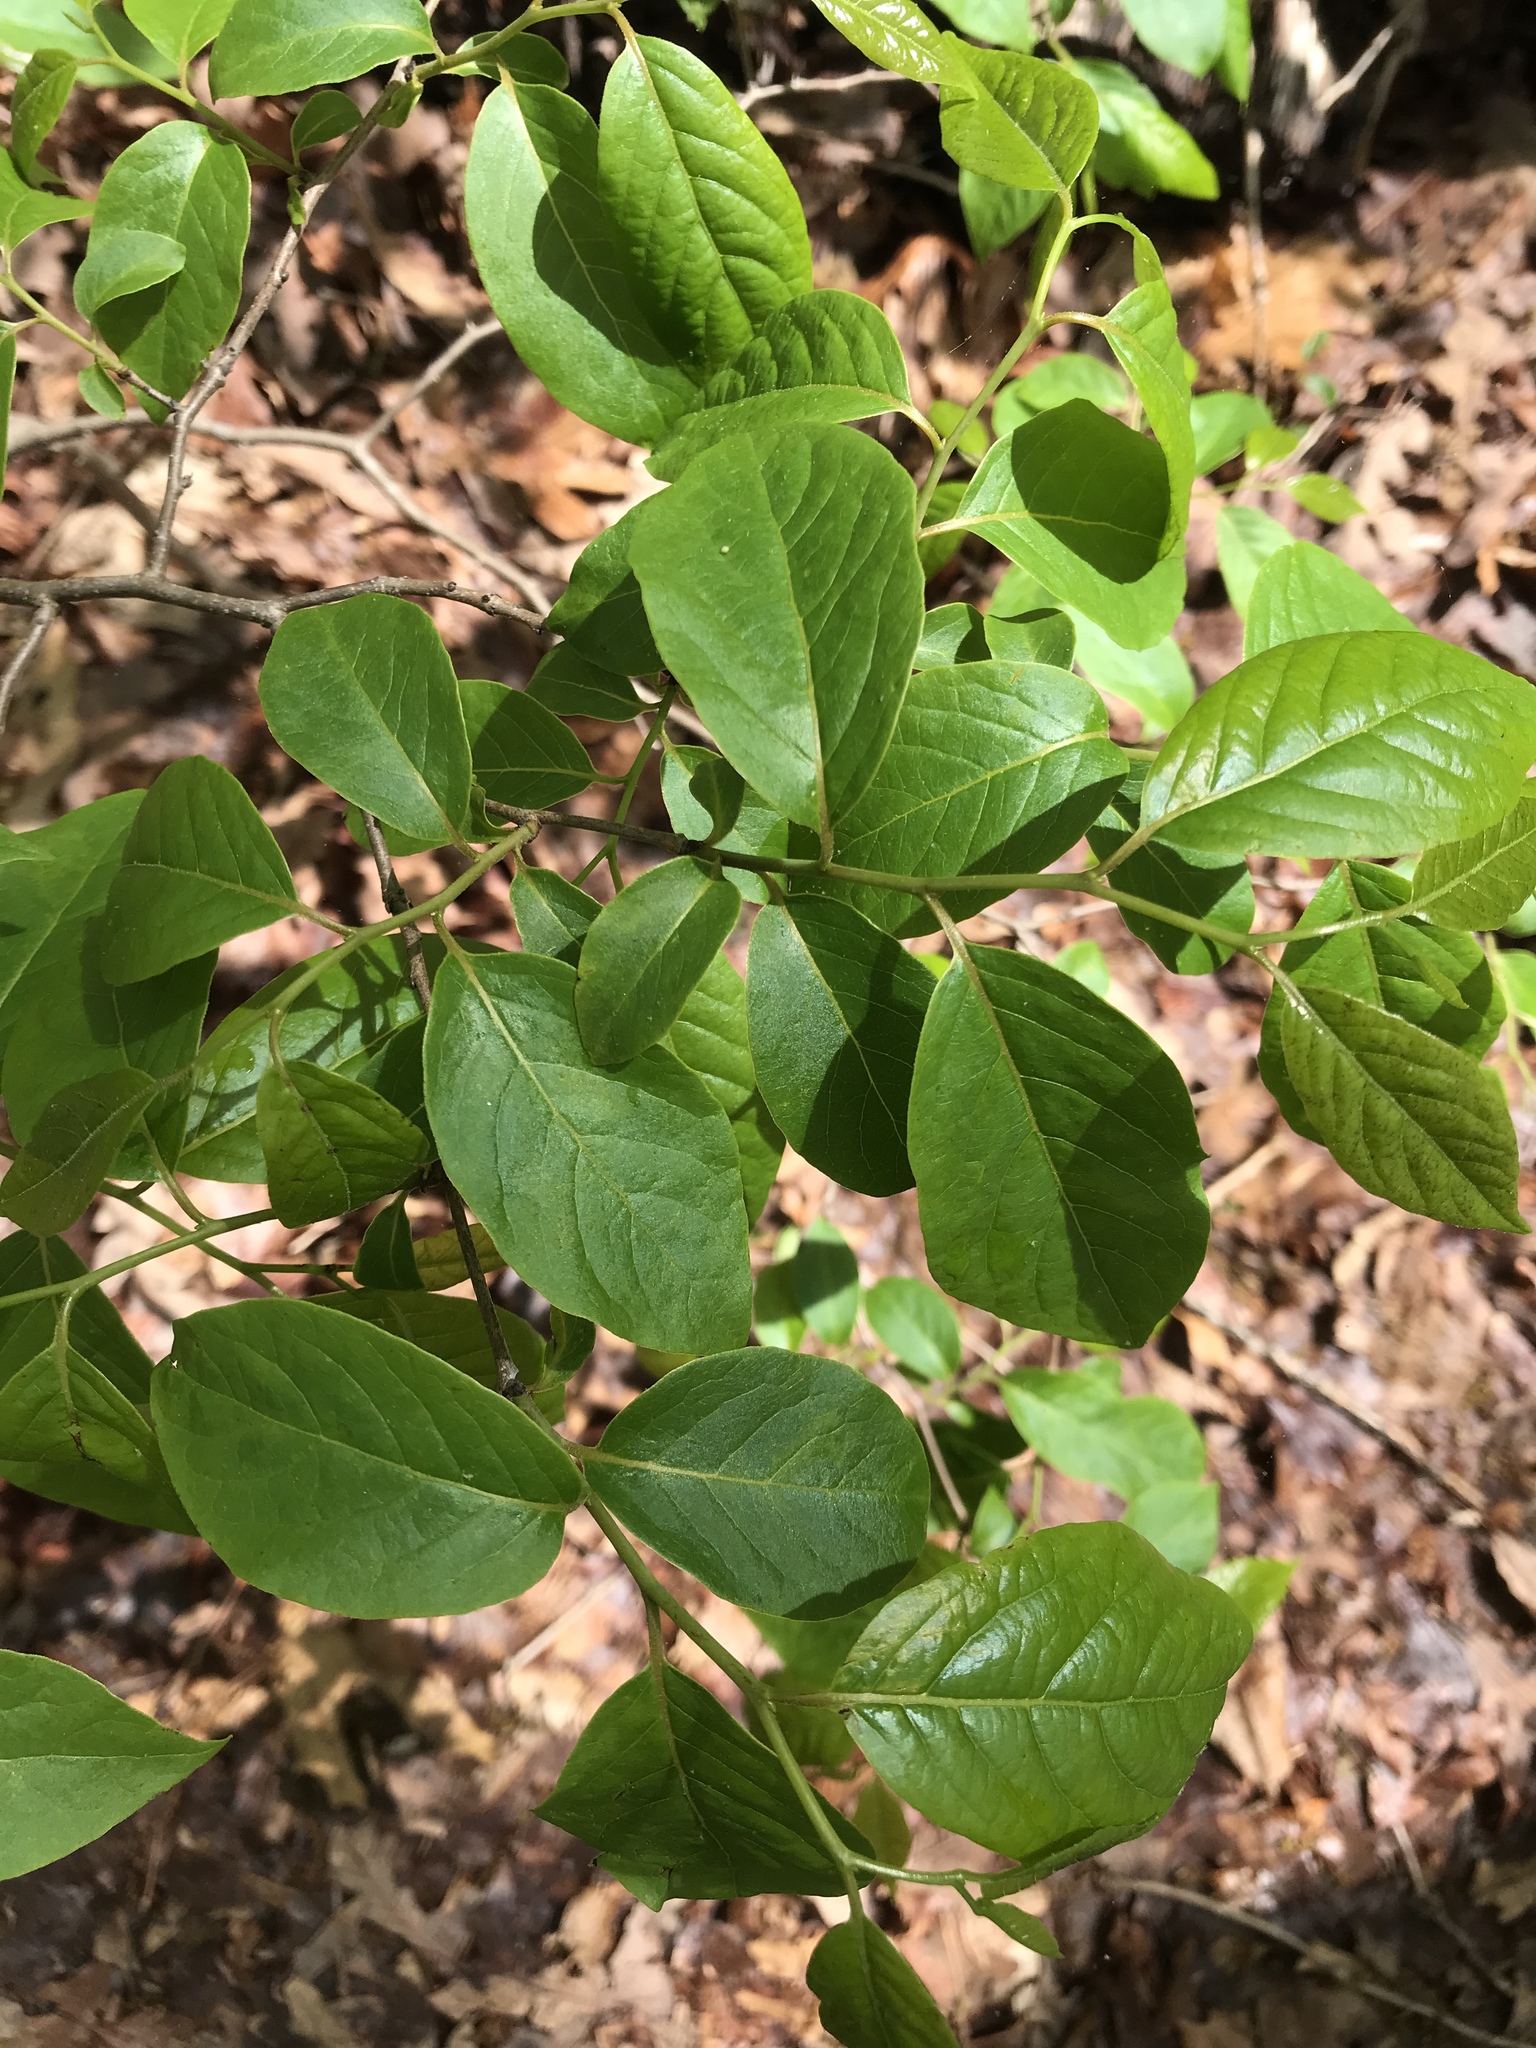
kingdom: Plantae
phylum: Tracheophyta
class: Magnoliopsida
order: Ericales
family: Ebenaceae
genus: Diospyros
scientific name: Diospyros virginiana
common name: Persimmon
